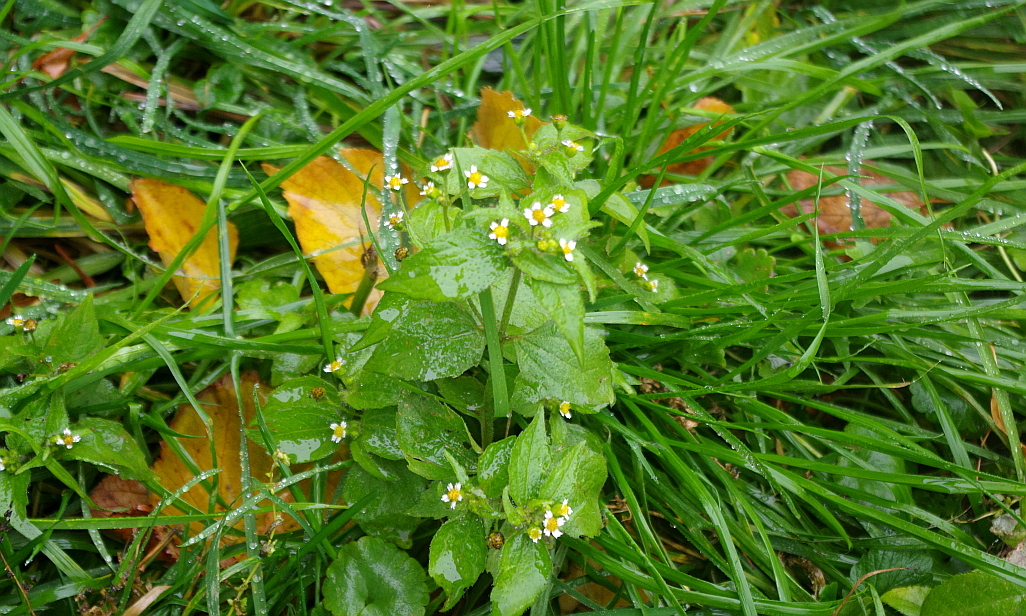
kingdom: Plantae
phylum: Tracheophyta
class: Magnoliopsida
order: Asterales
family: Asteraceae
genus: Galinsoga
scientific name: Galinsoga quadriradiata
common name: Shaggy soldier
